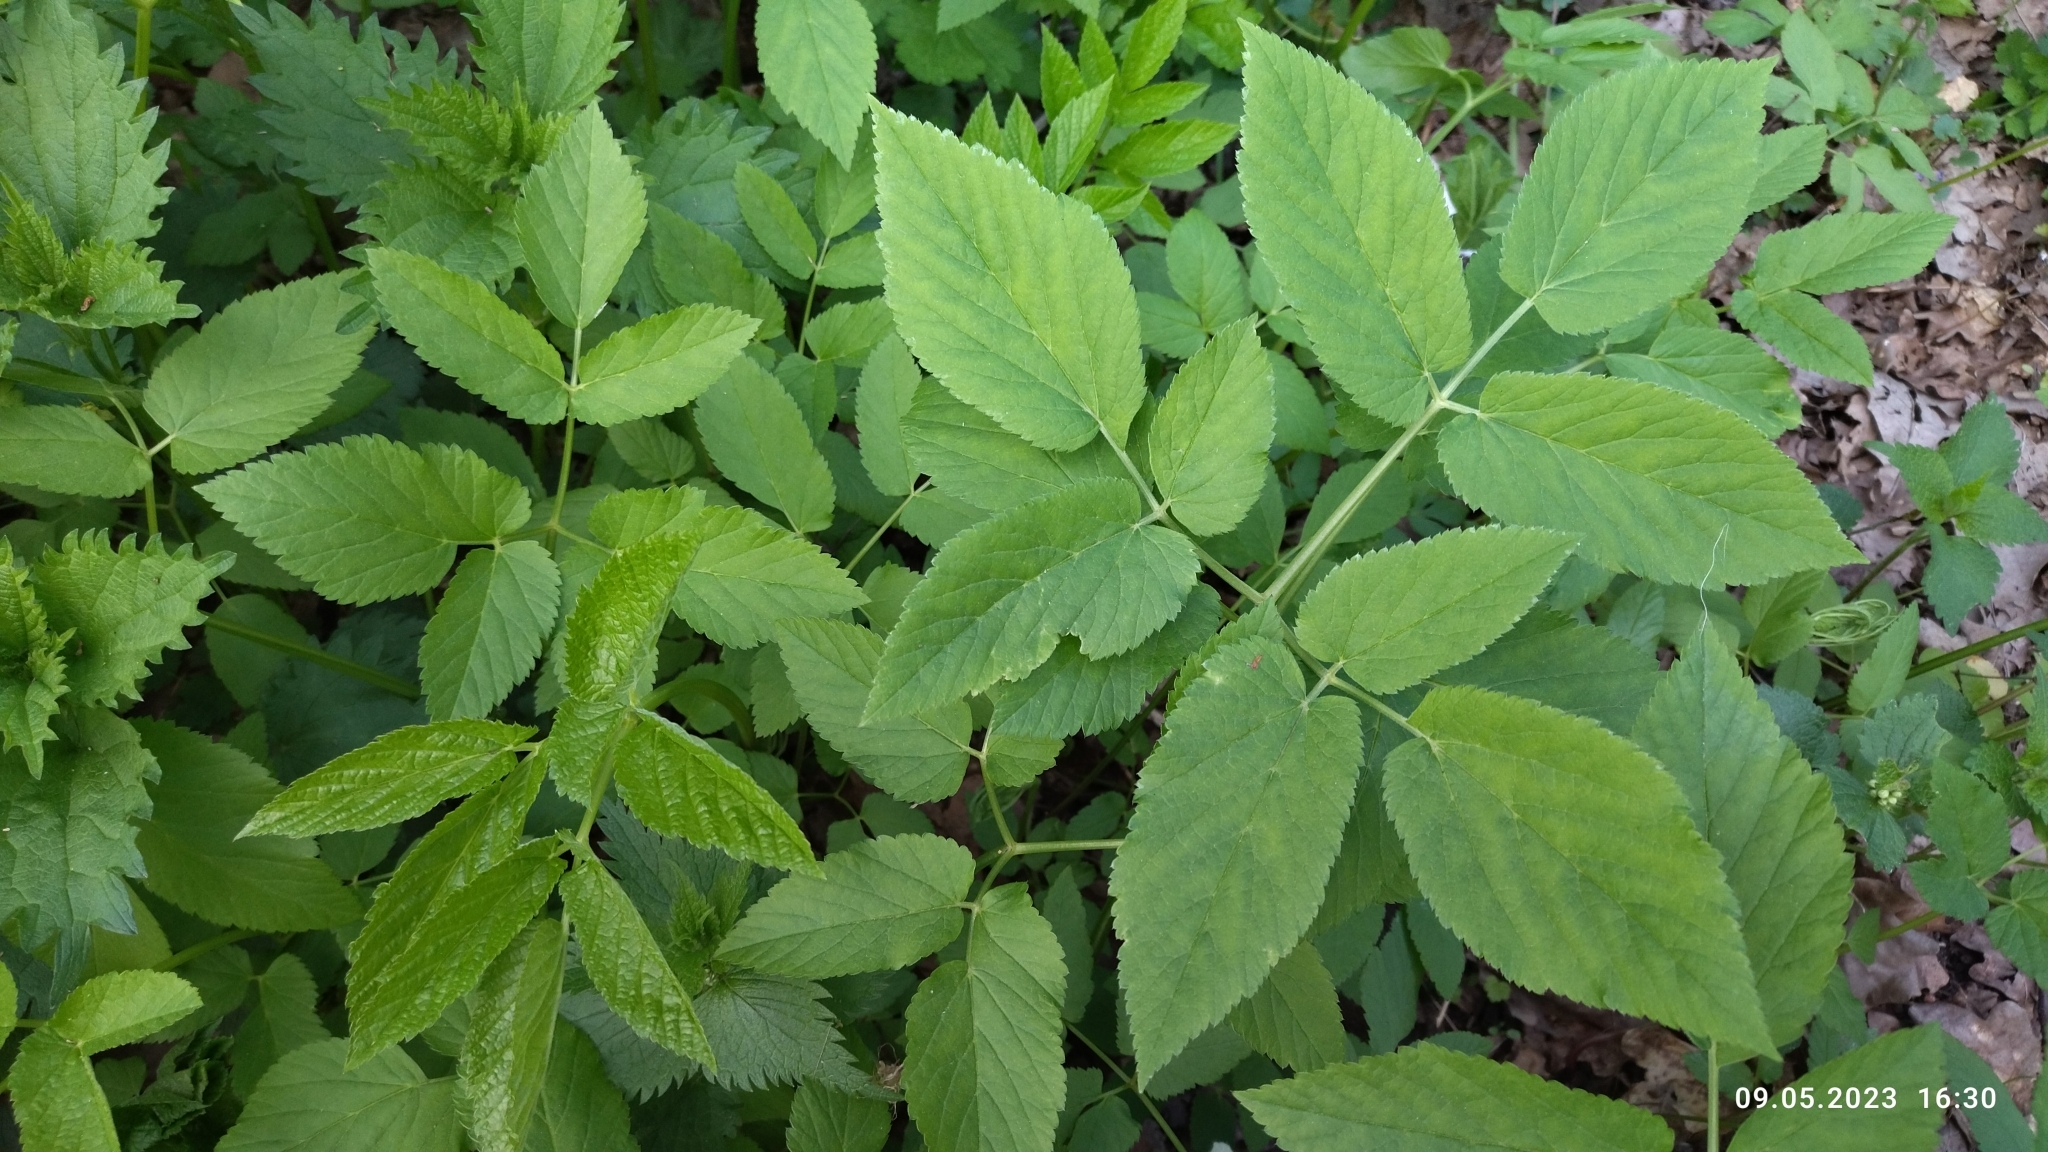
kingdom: Plantae
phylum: Tracheophyta
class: Magnoliopsida
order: Apiales
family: Apiaceae
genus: Aegopodium
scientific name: Aegopodium podagraria
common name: Ground-elder
